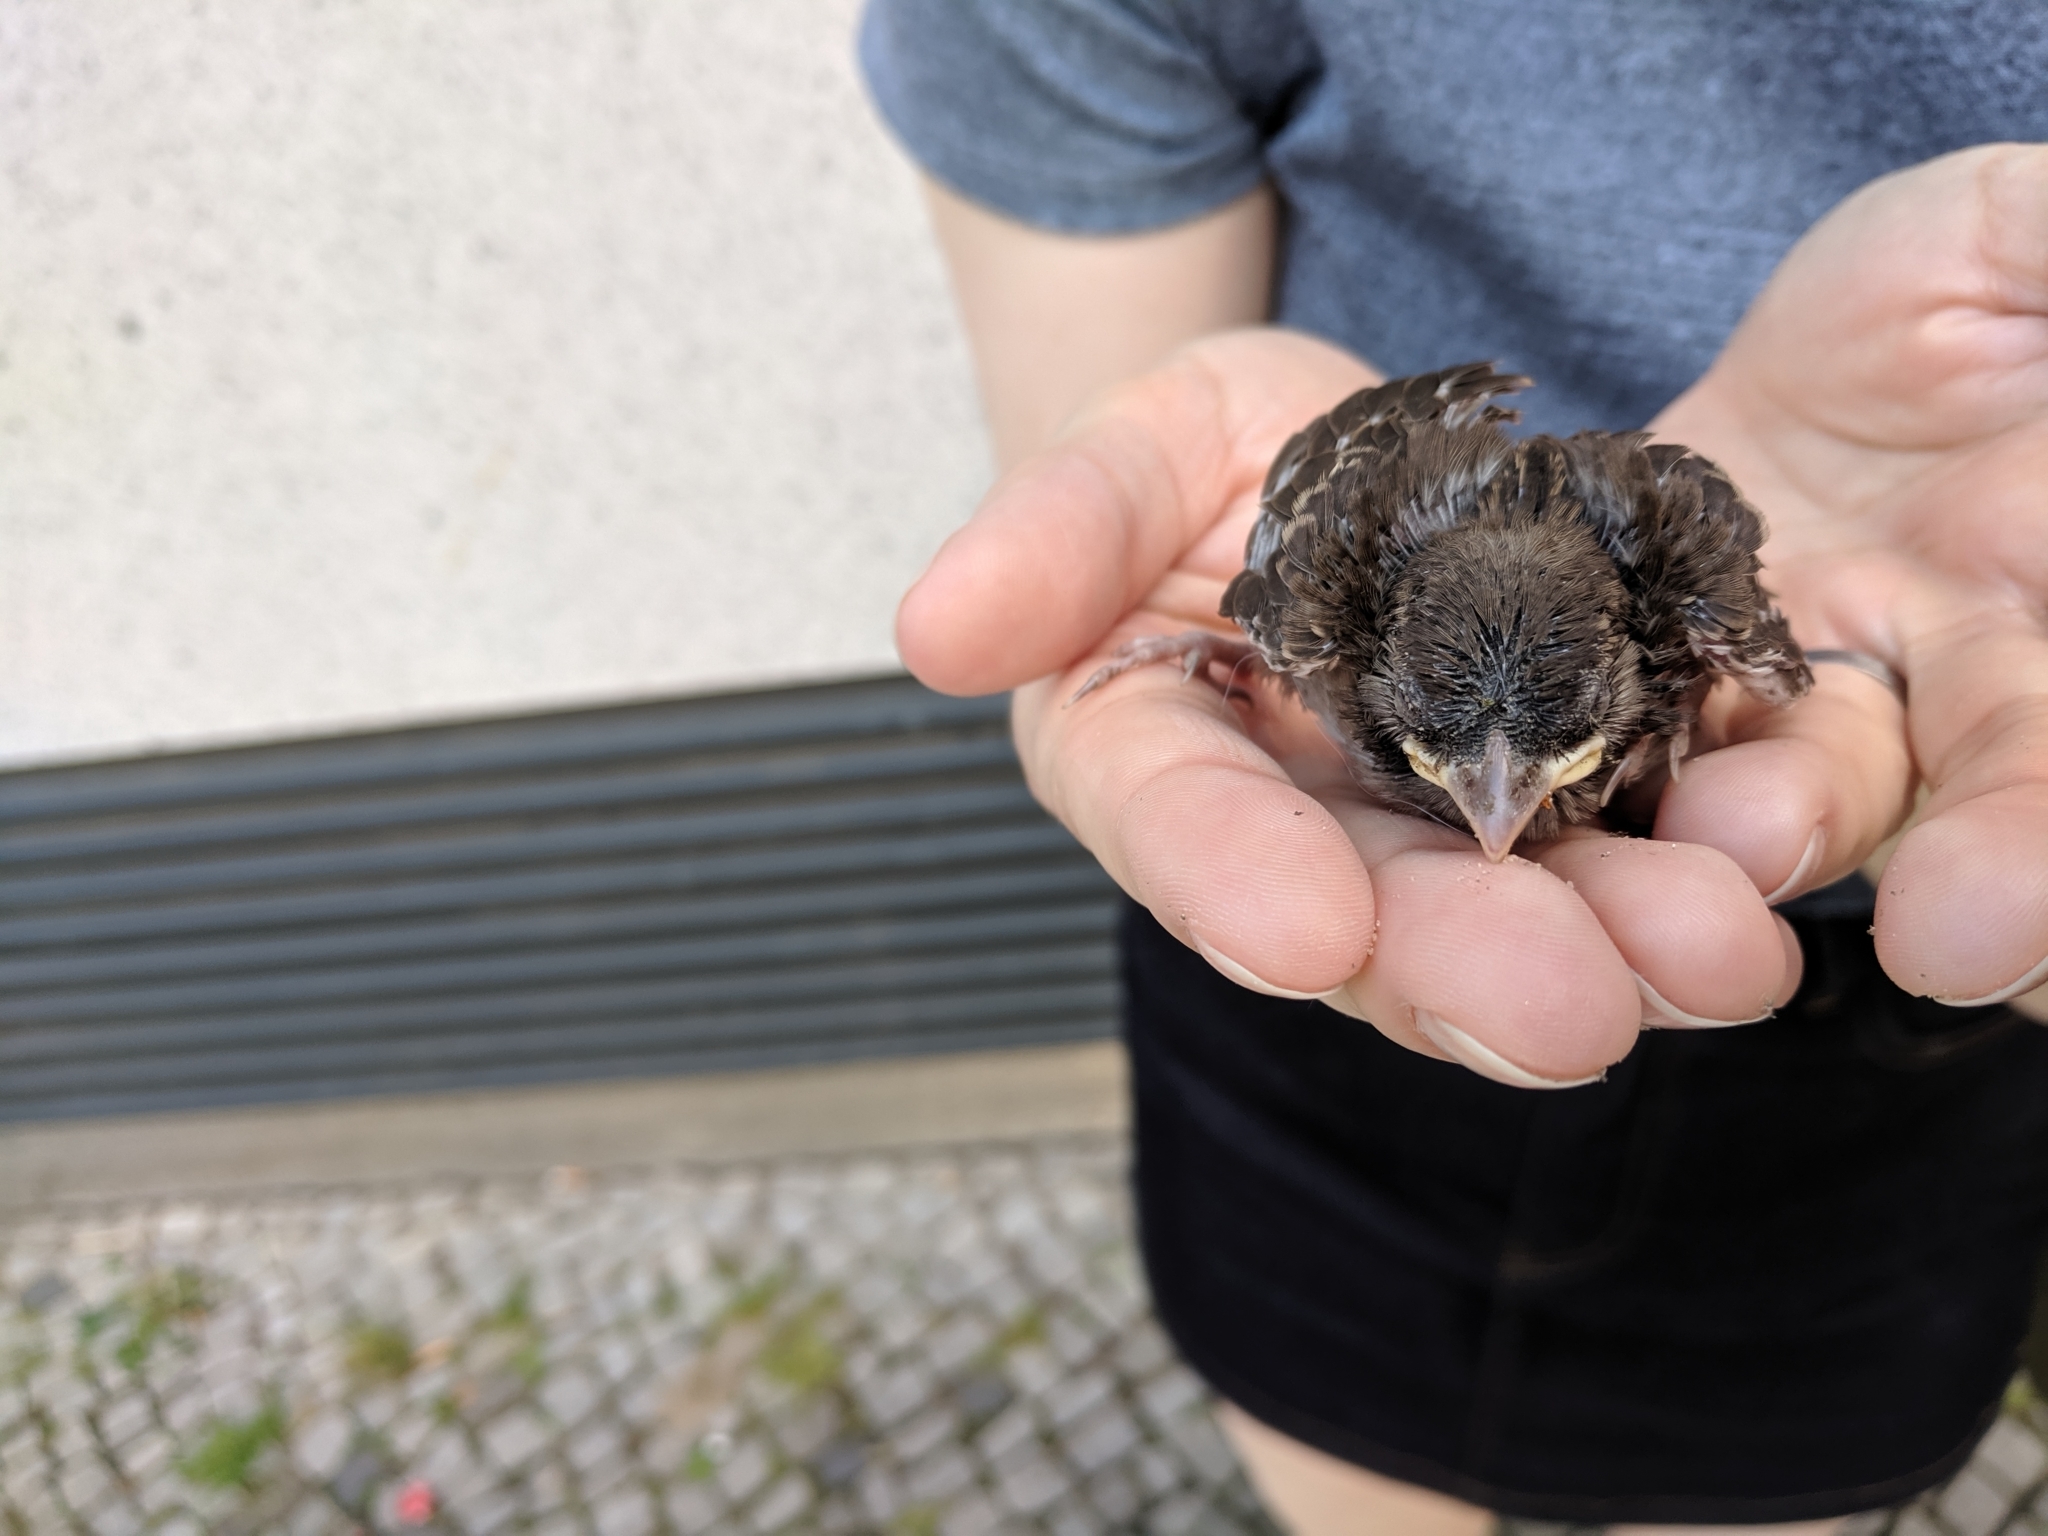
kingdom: Animalia
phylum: Chordata
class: Aves
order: Passeriformes
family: Passeridae
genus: Passer
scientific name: Passer domesticus
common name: House sparrow
